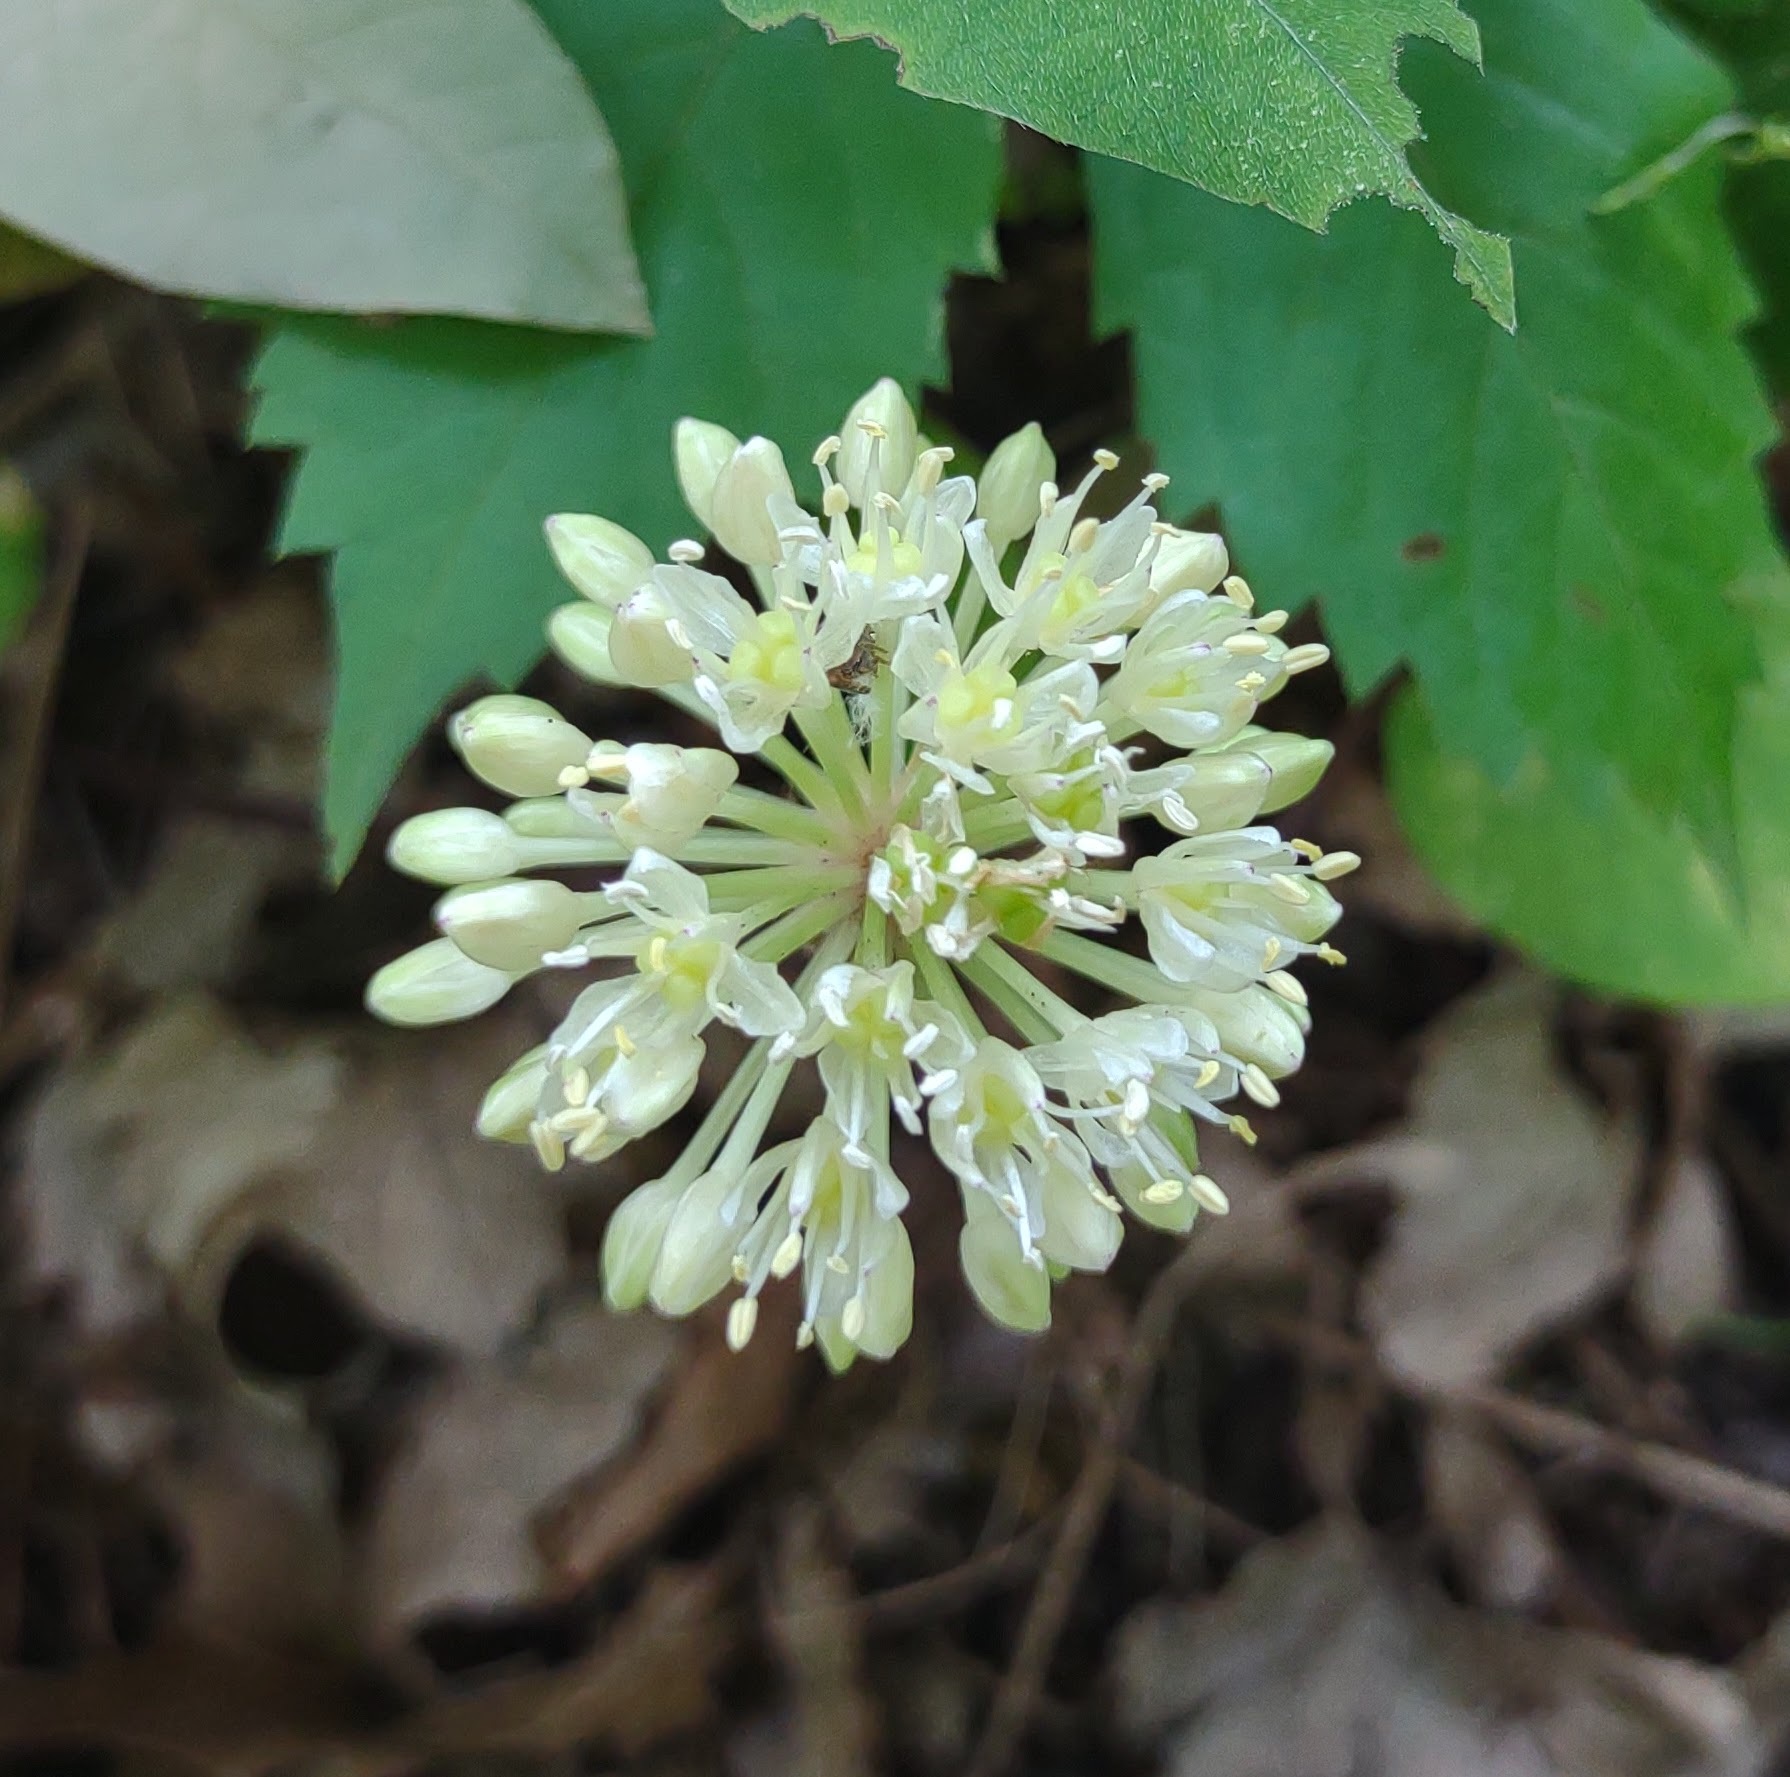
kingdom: Plantae
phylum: Tracheophyta
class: Liliopsida
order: Asparagales
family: Amaryllidaceae
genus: Allium
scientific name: Allium tricoccum
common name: Ramp
